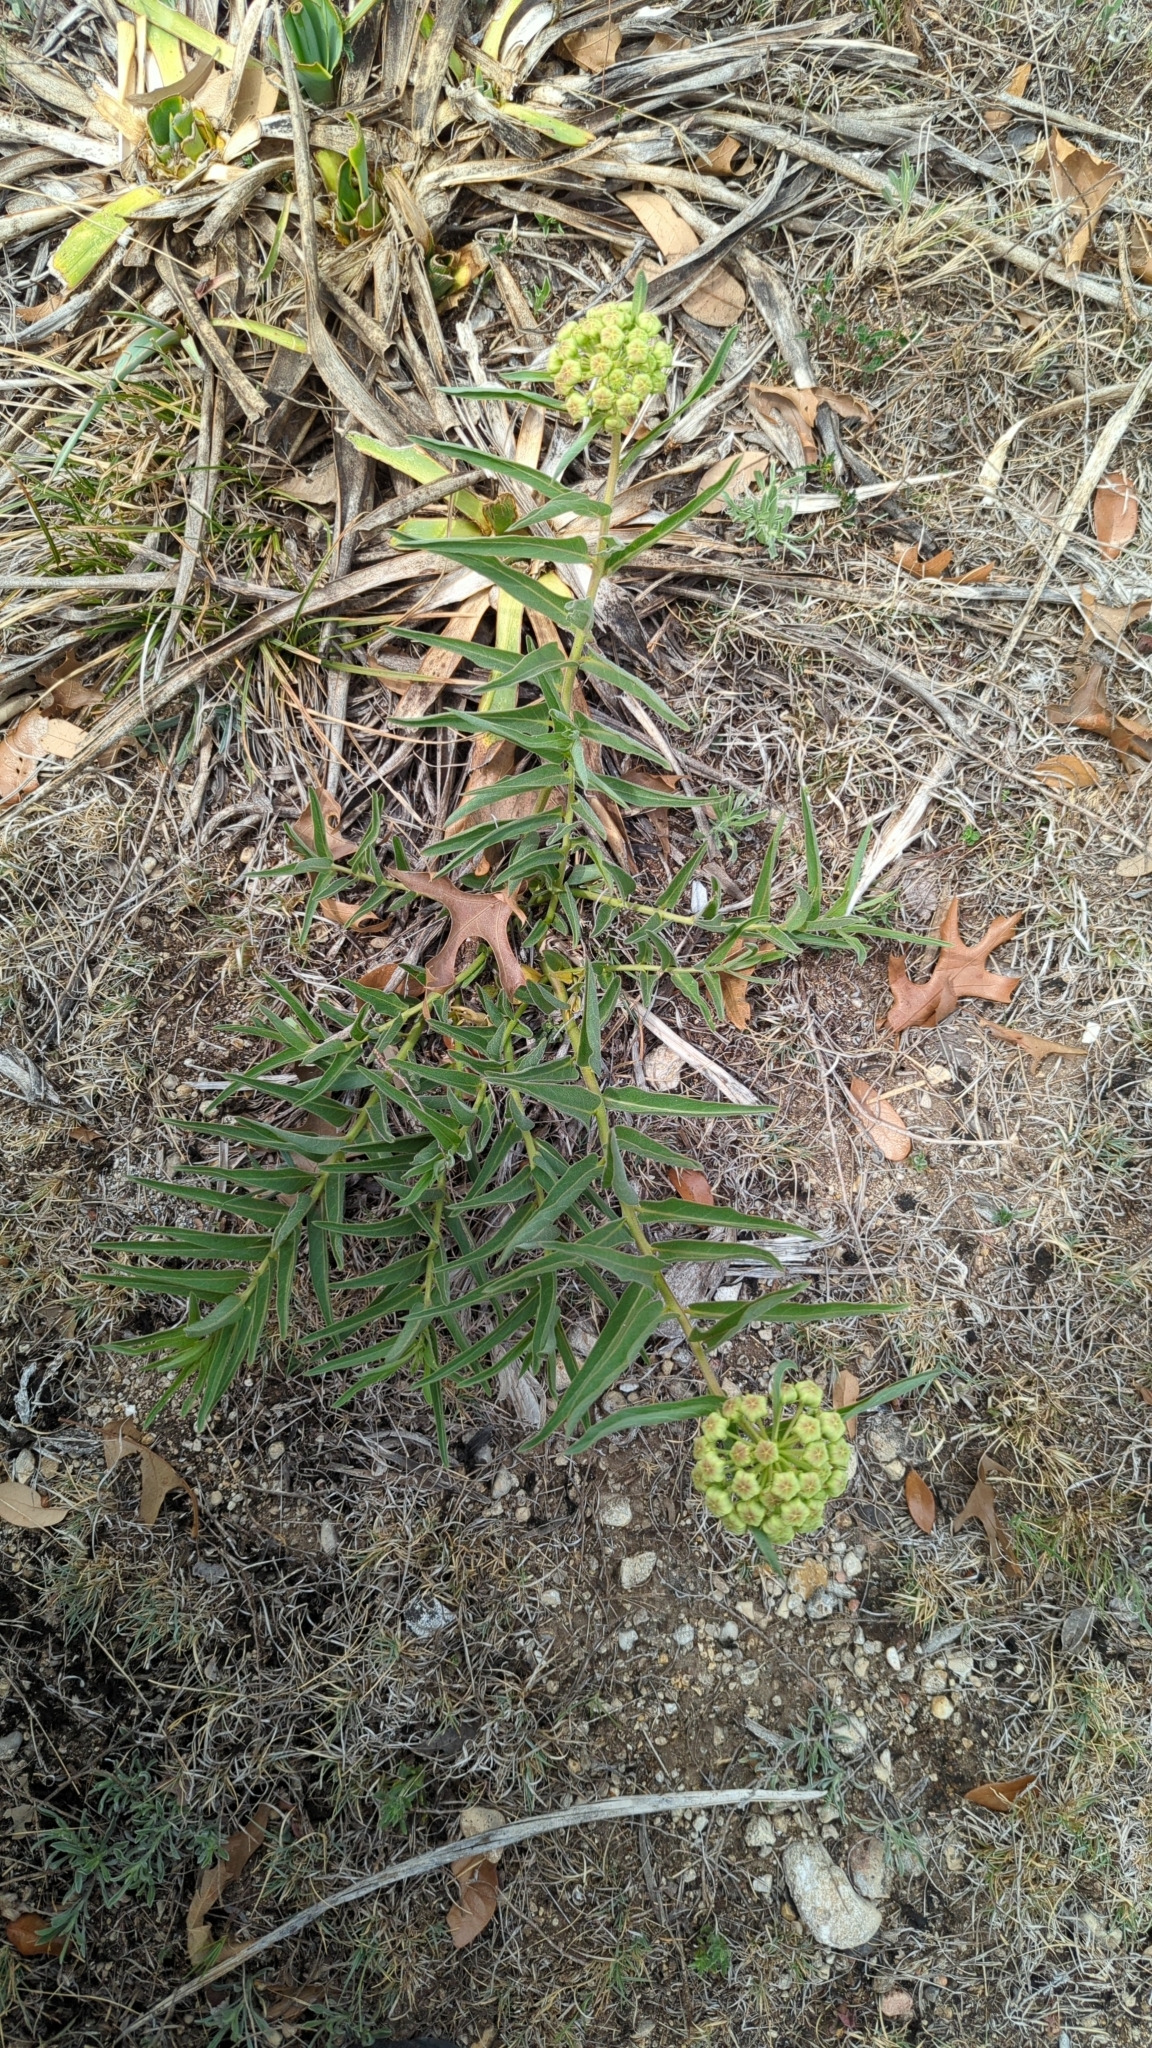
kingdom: Plantae
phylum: Tracheophyta
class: Magnoliopsida
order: Gentianales
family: Apocynaceae
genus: Asclepias
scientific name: Asclepias asperula
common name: Antelope horns
